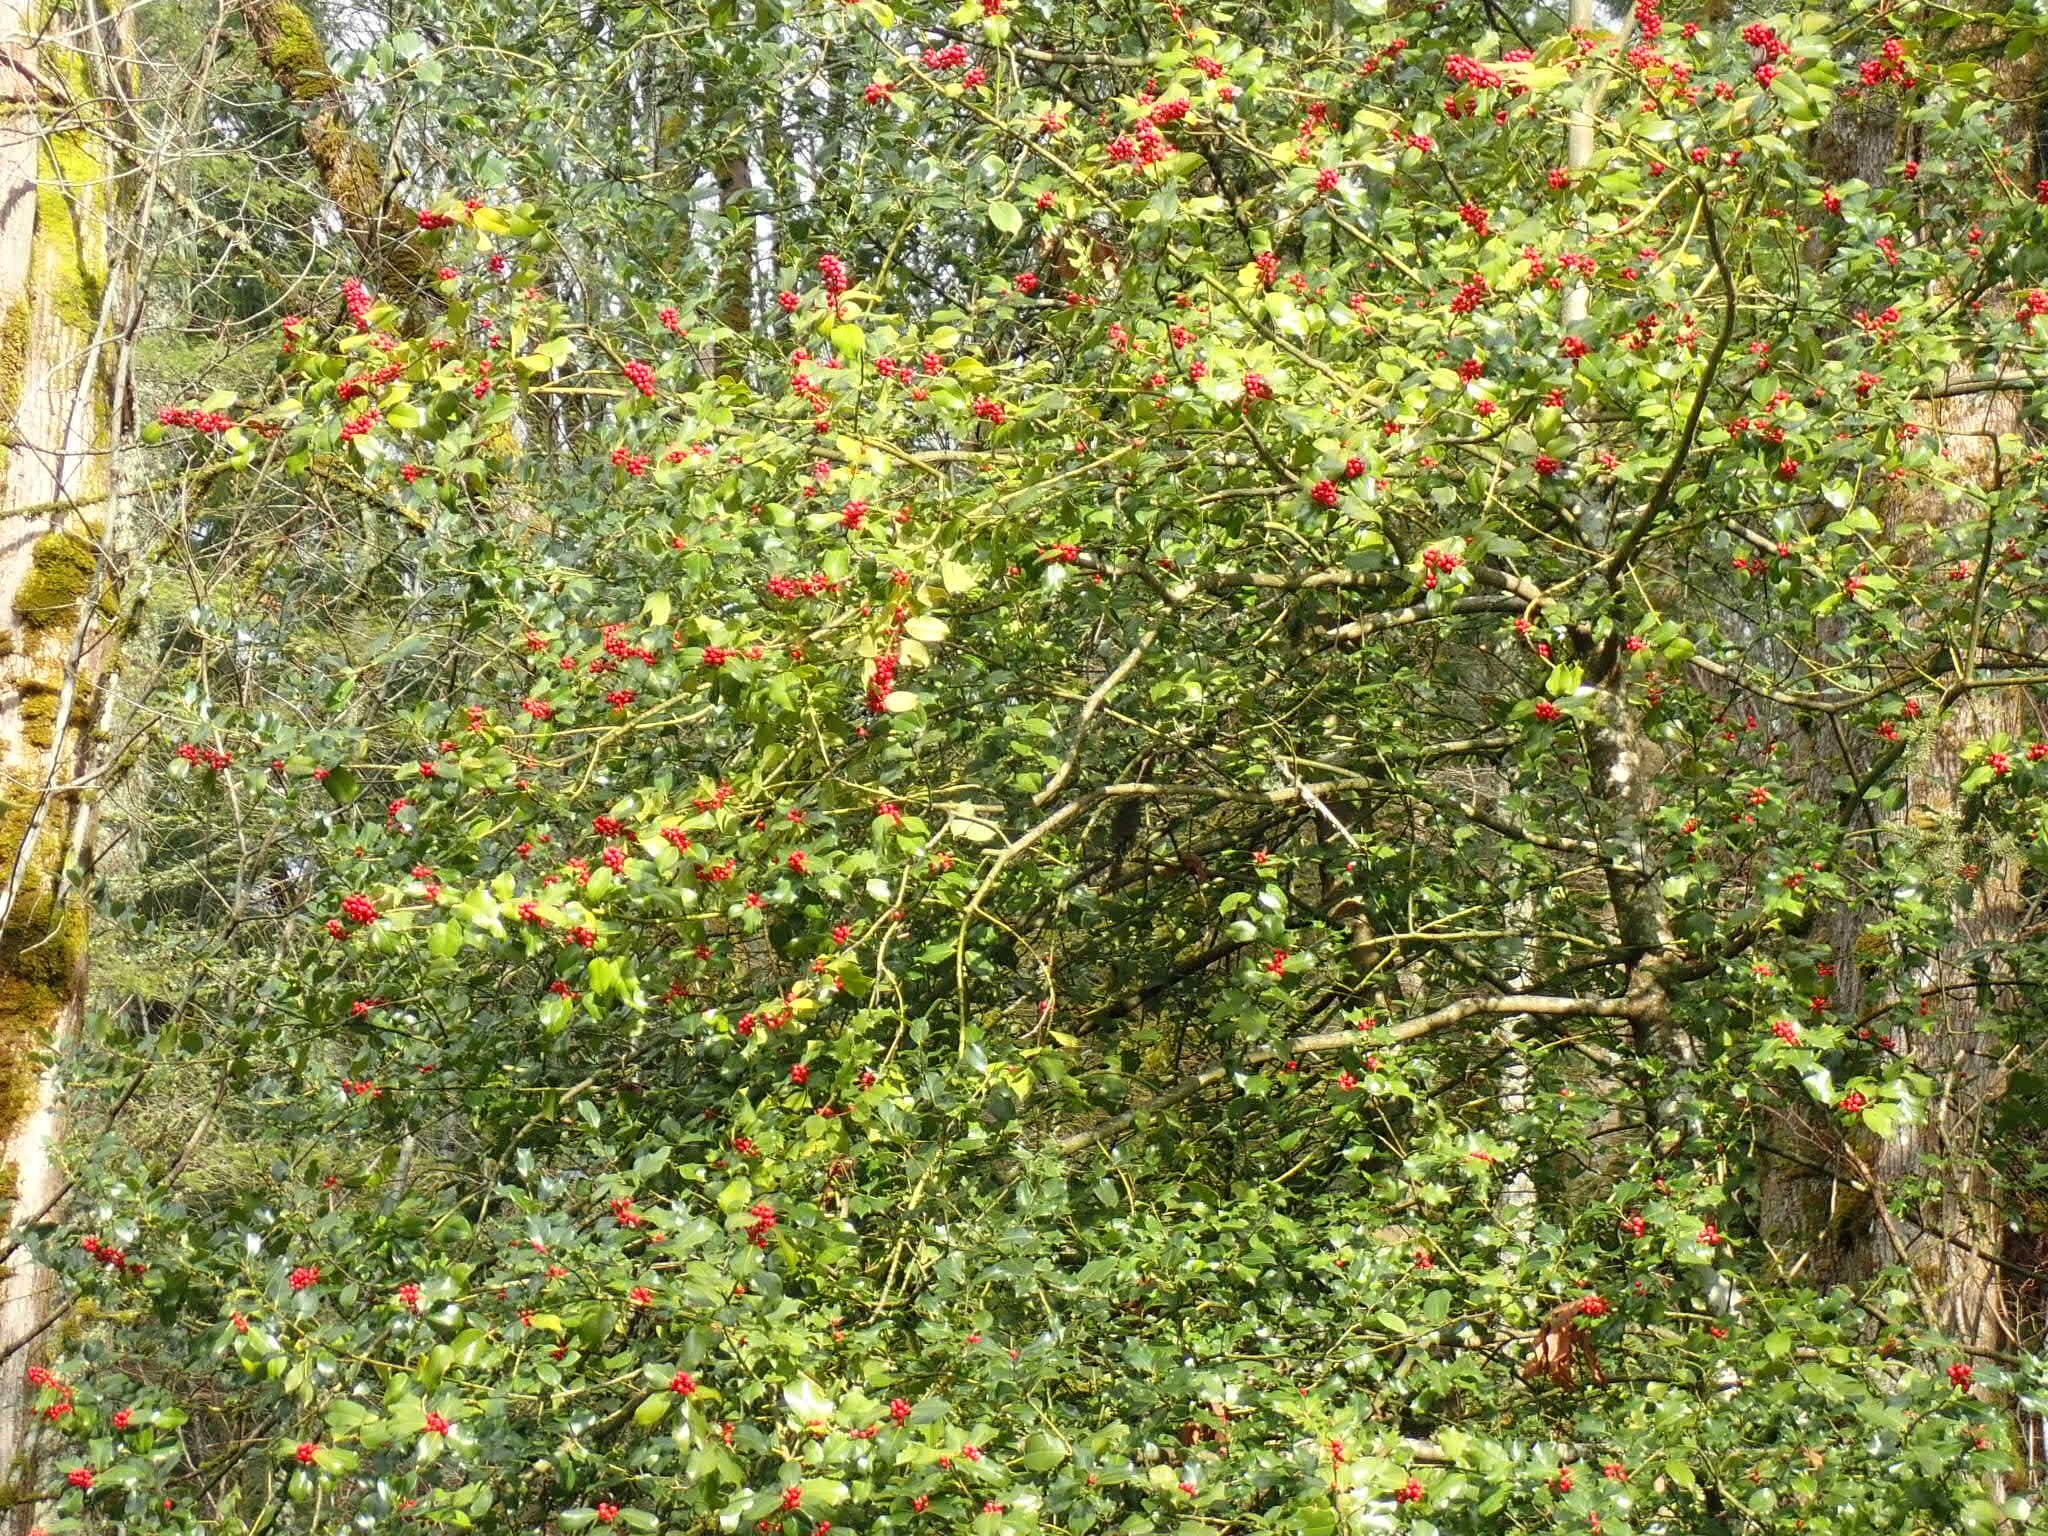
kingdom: Plantae
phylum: Tracheophyta
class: Magnoliopsida
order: Aquifoliales
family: Aquifoliaceae
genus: Ilex
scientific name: Ilex aquifolium
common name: English holly
